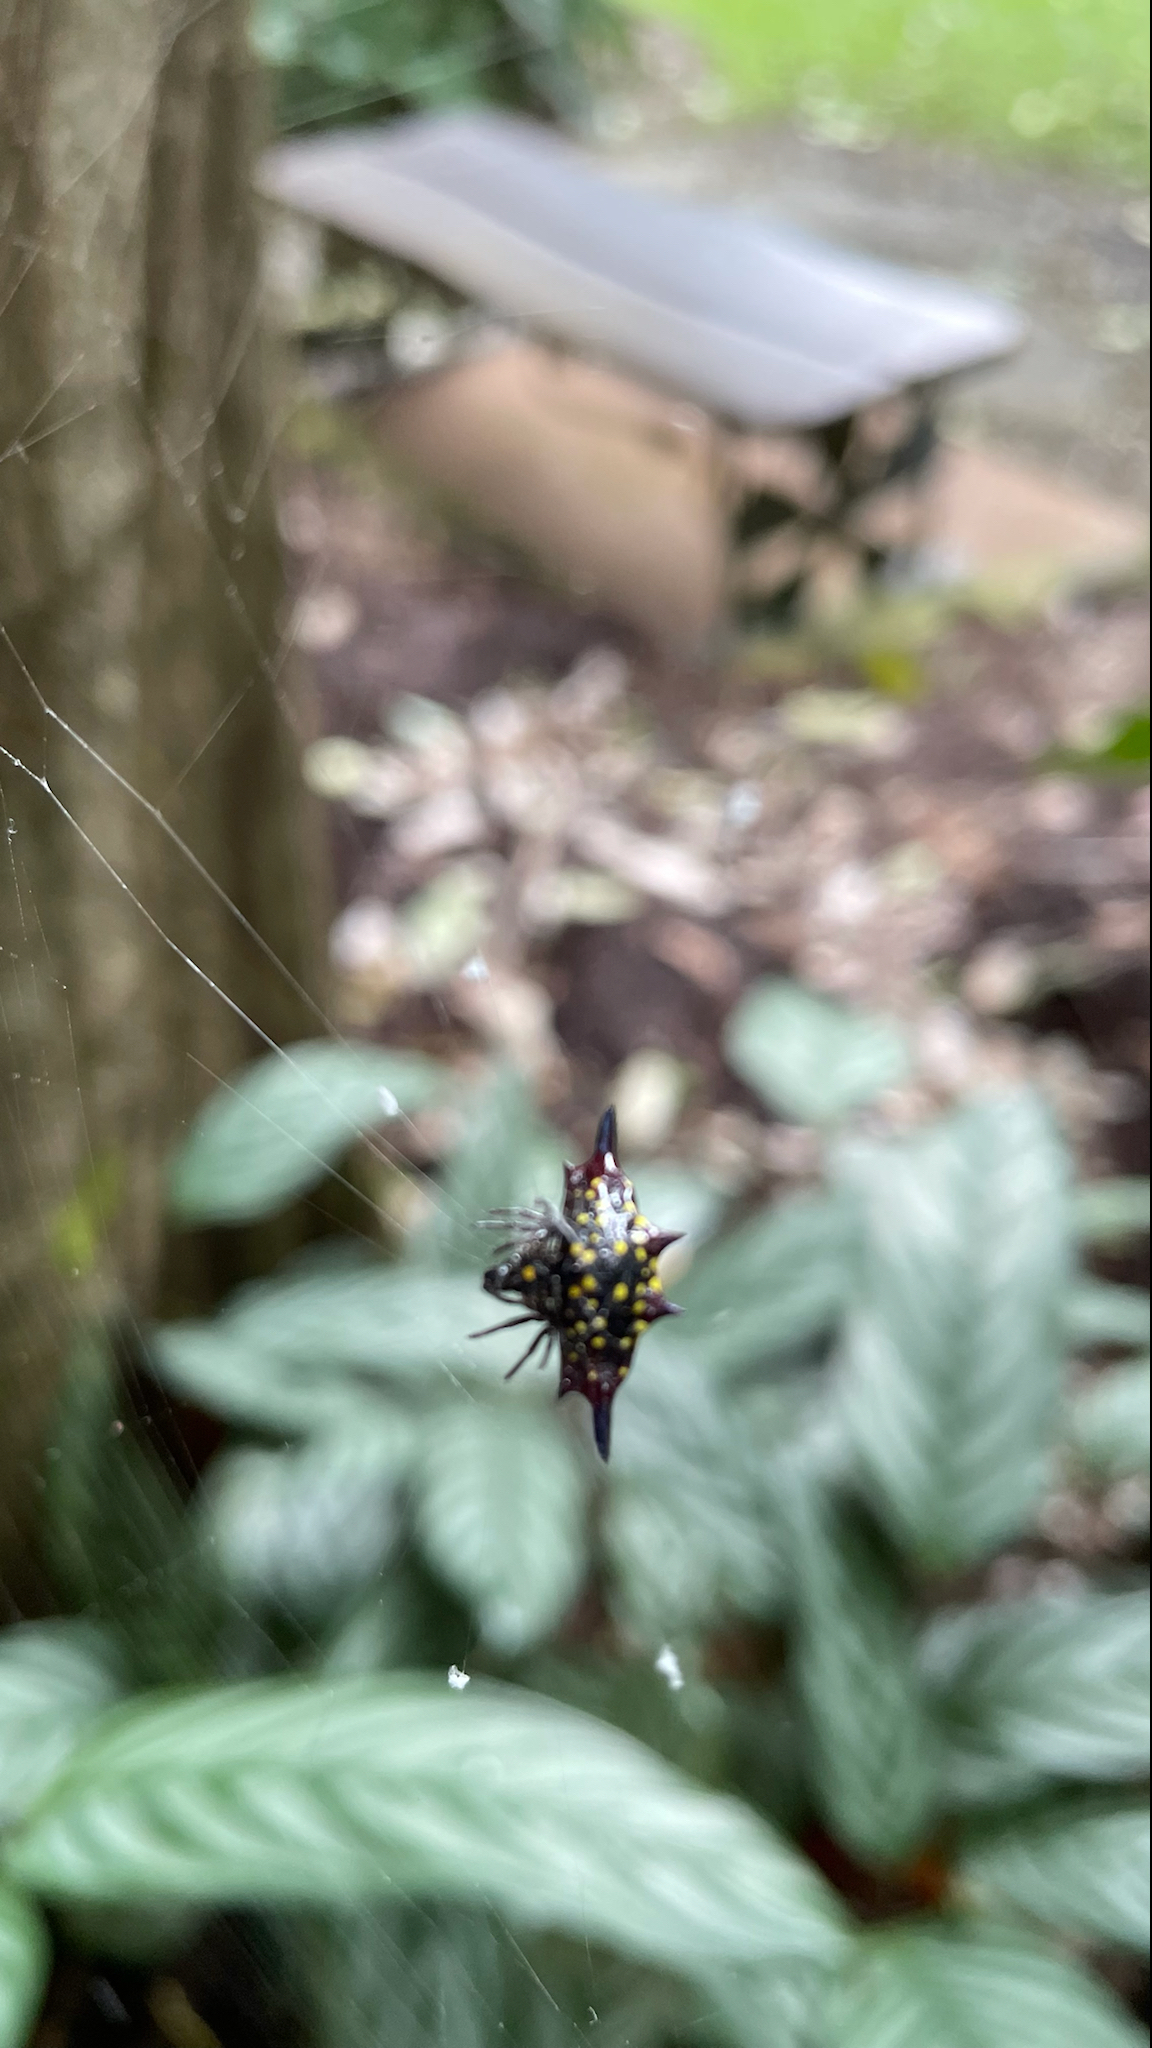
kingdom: Animalia
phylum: Arthropoda
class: Arachnida
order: Araneae
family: Araneidae
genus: Gasteracantha
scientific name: Gasteracantha fornicata
